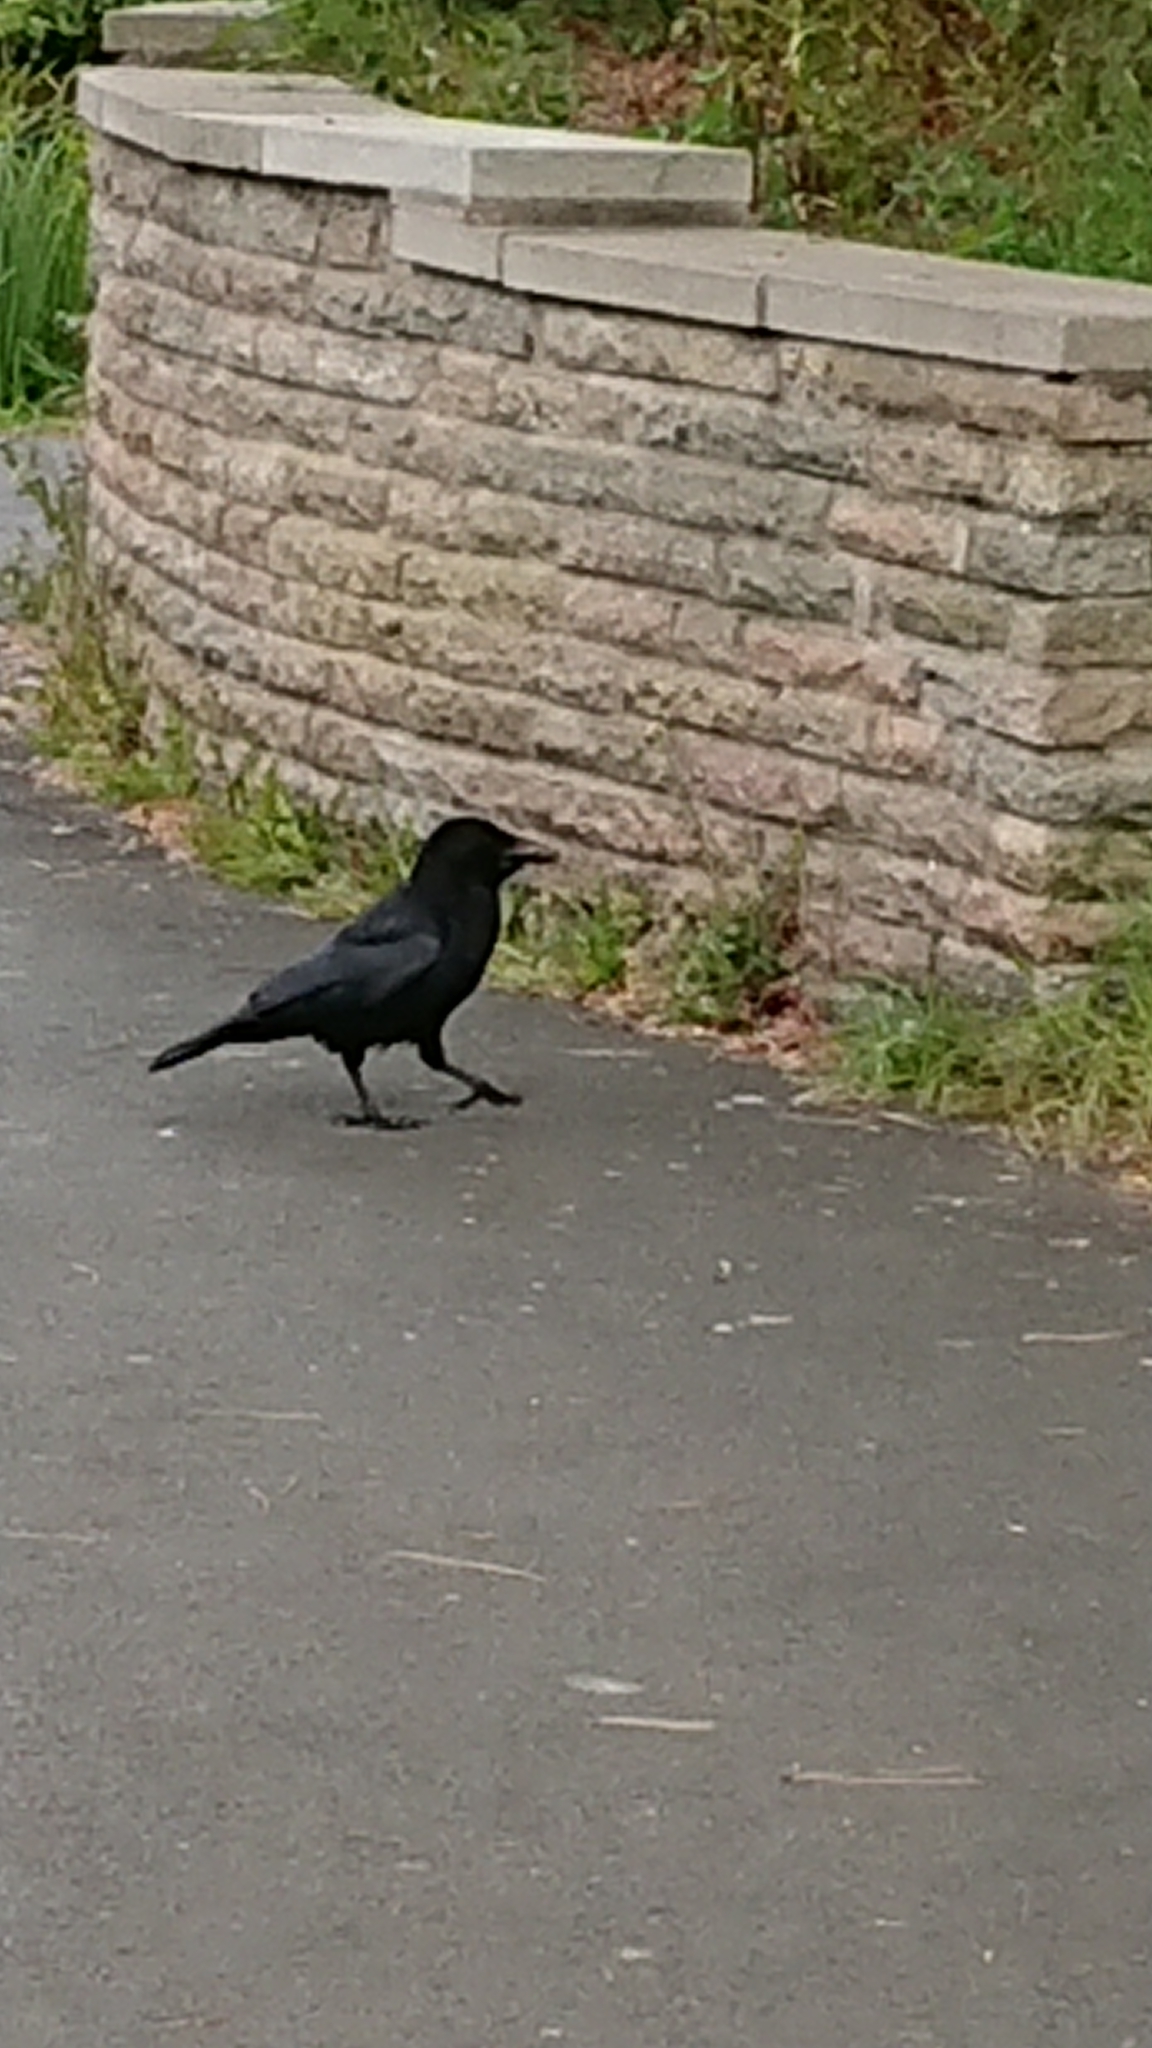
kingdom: Animalia
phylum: Chordata
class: Aves
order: Passeriformes
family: Corvidae
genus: Corvus
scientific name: Corvus corone
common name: Carrion crow
